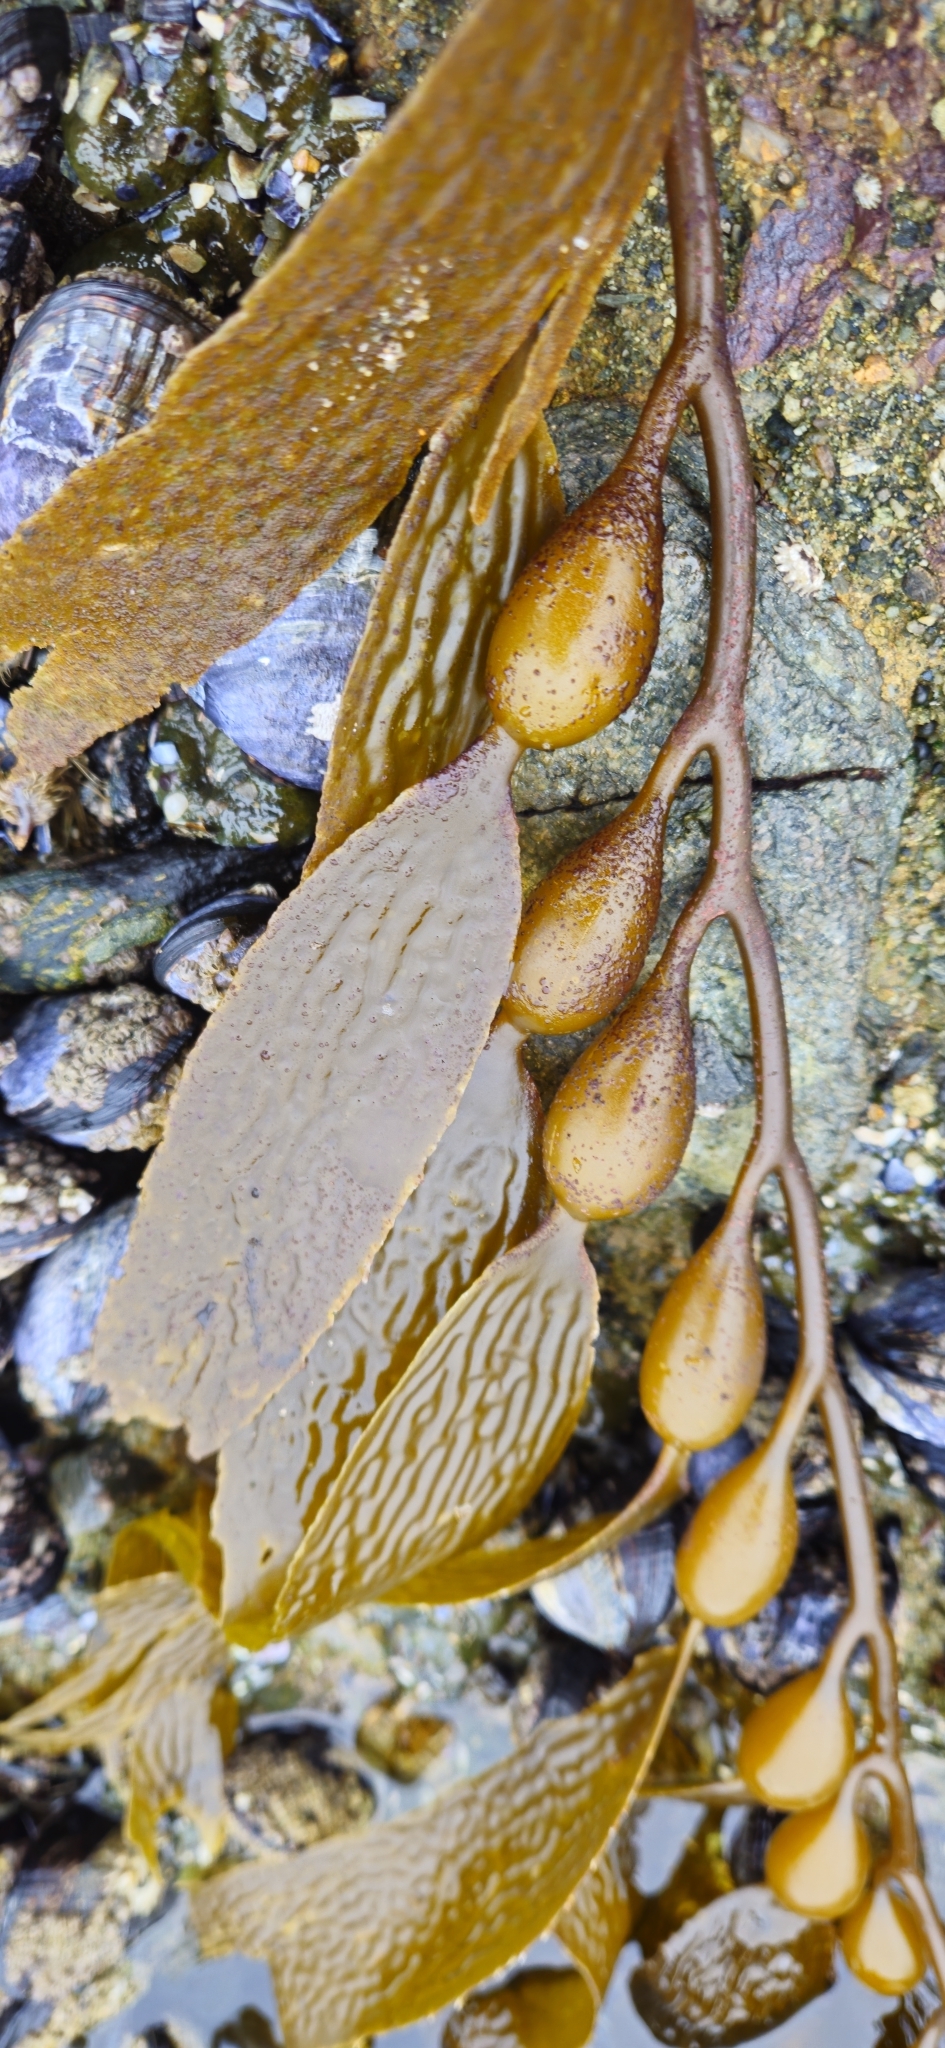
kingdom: Chromista
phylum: Ochrophyta
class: Phaeophyceae
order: Laminariales
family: Laminariaceae
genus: Macrocystis
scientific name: Macrocystis pyrifera
